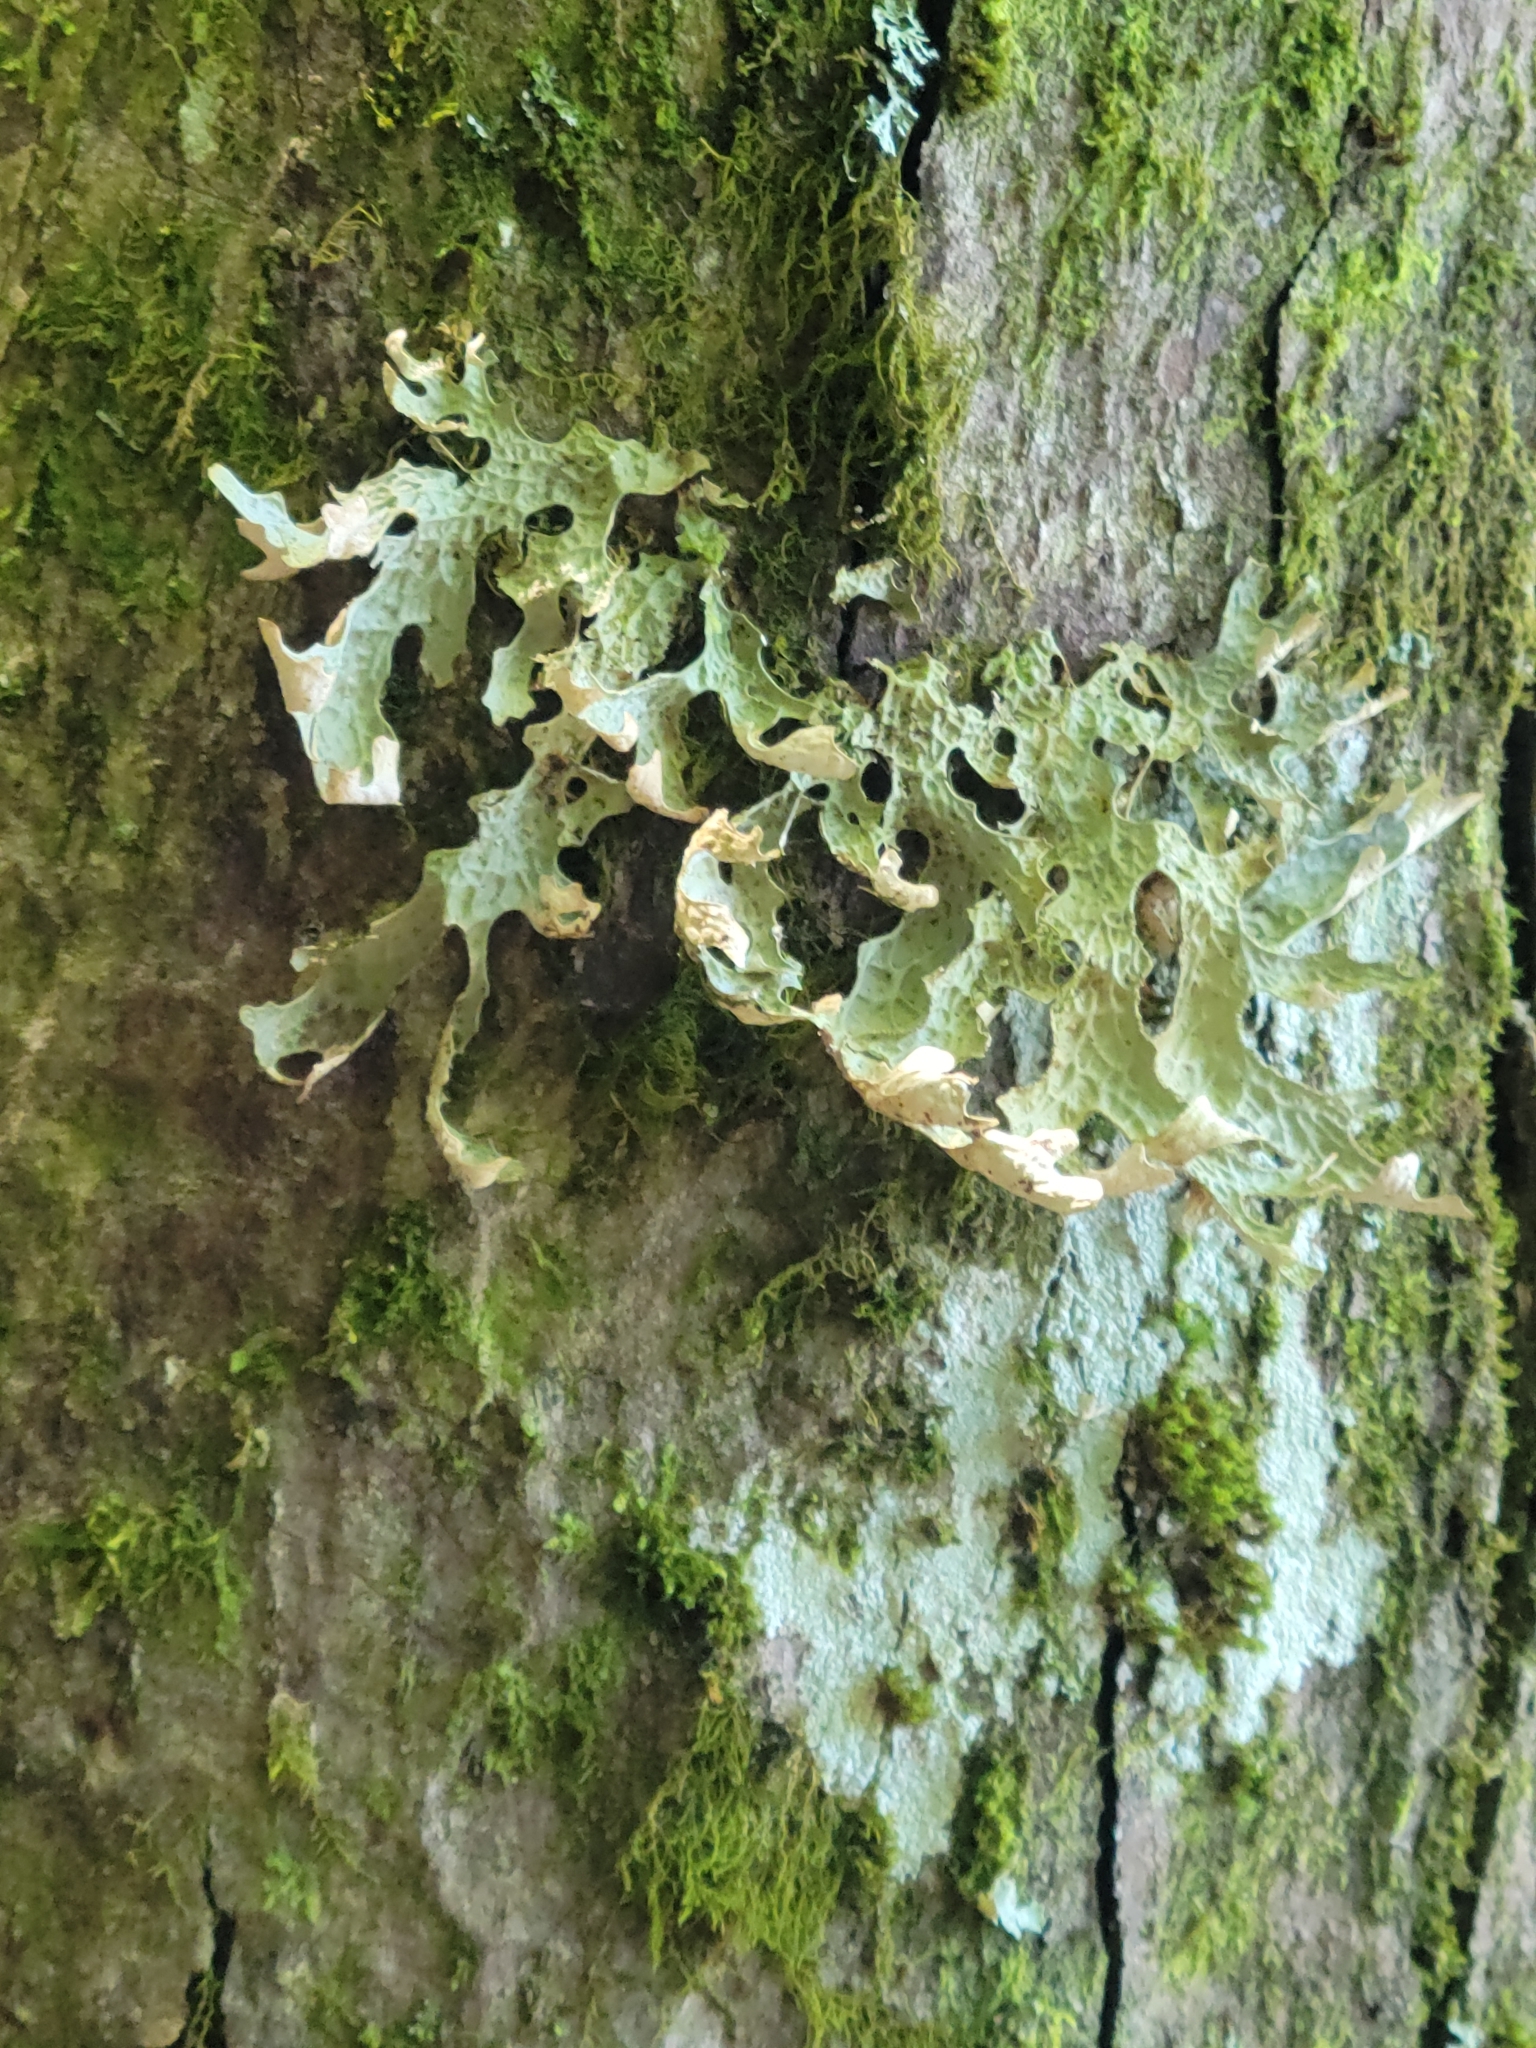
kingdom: Fungi
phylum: Ascomycota
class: Lecanoromycetes
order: Peltigerales
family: Lobariaceae
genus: Lobaria
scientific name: Lobaria pulmonaria
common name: Lungwort
